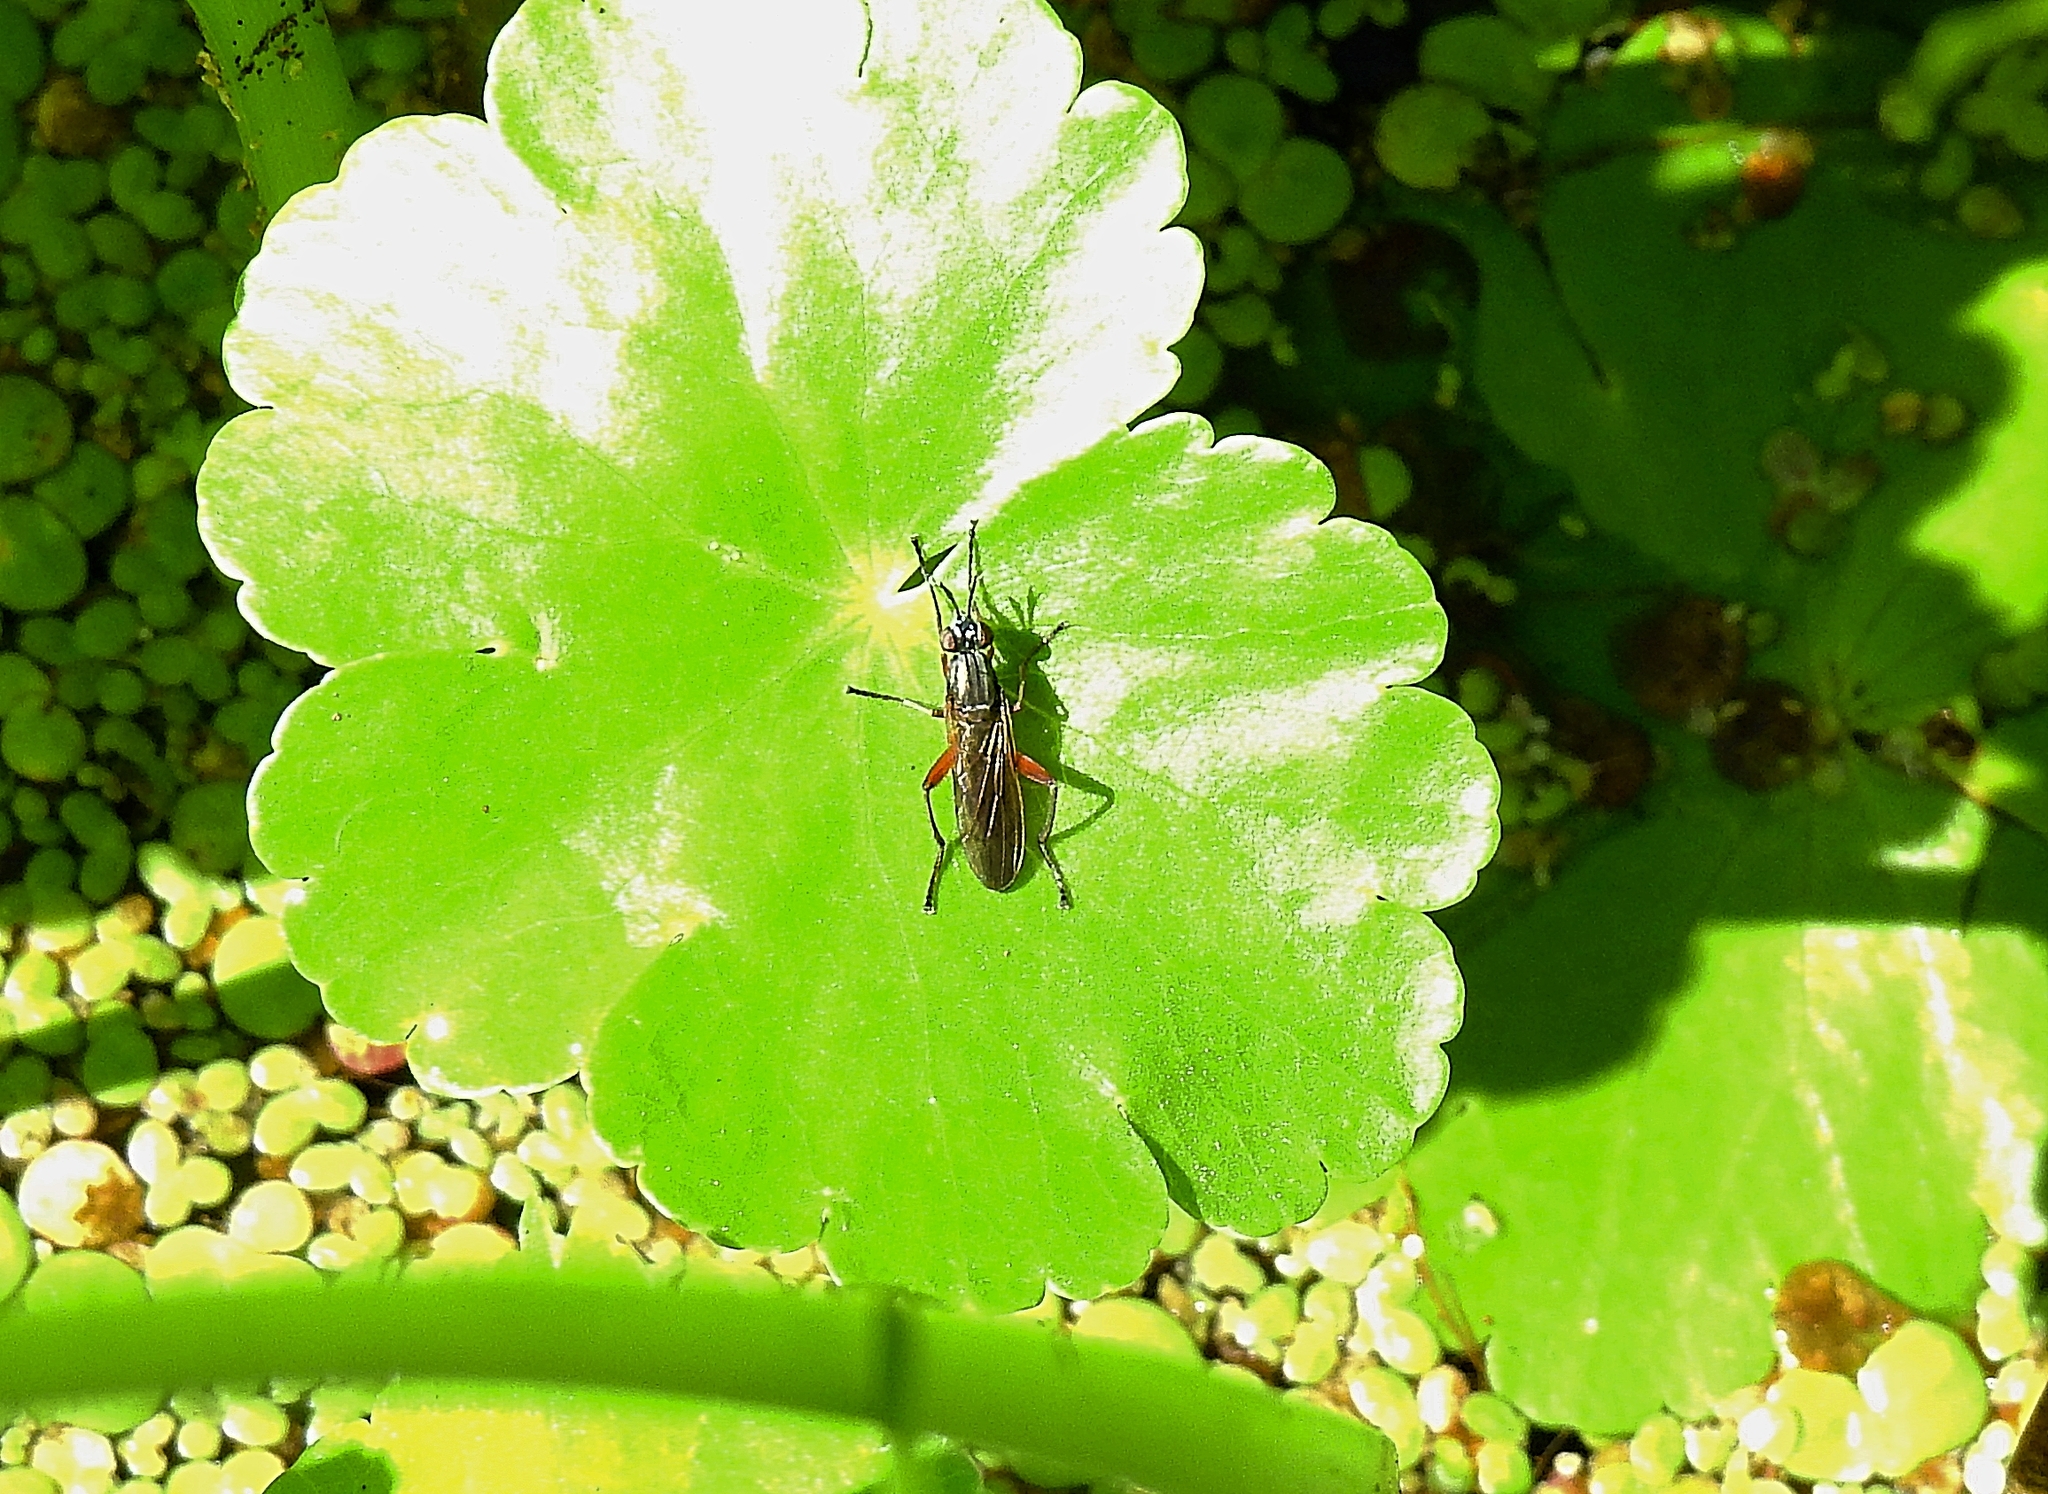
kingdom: Animalia
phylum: Arthropoda
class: Insecta
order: Diptera
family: Sciomyzidae
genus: Sepedon
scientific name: Sepedon sphegea
